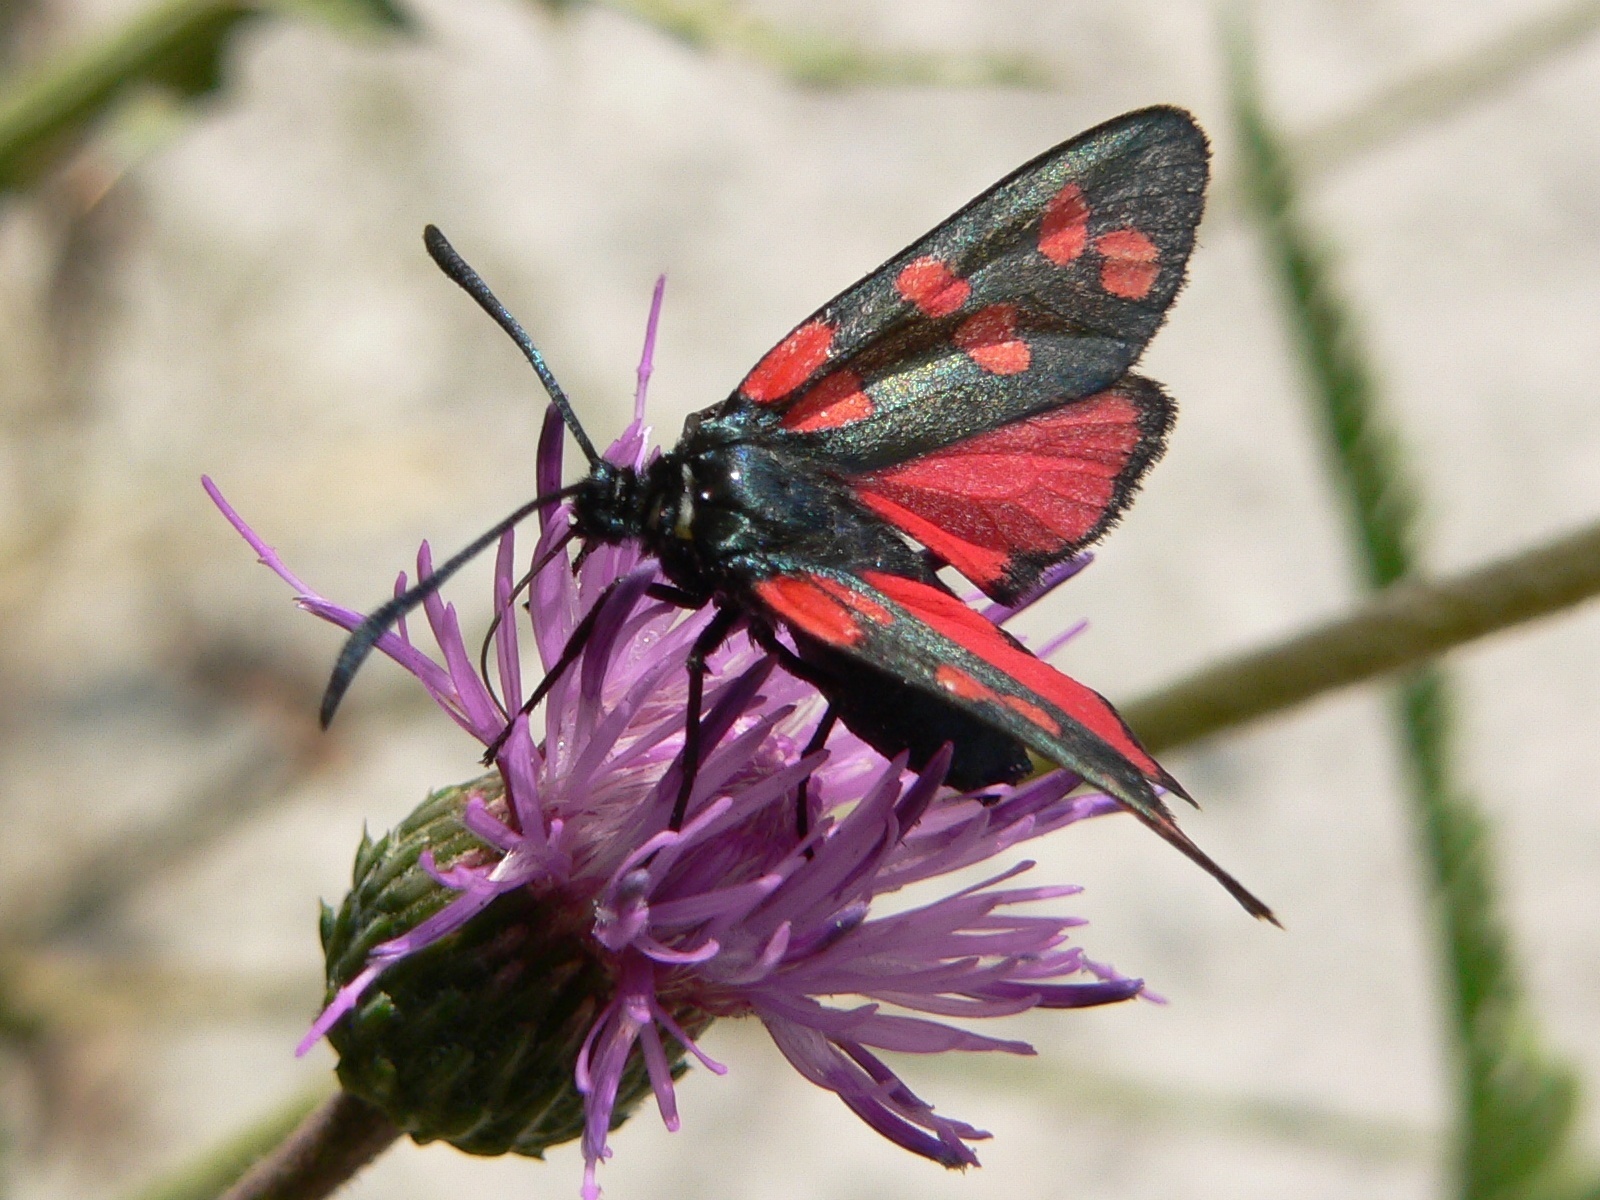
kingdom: Animalia
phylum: Arthropoda
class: Insecta
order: Lepidoptera
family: Zygaenidae
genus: Zygaena
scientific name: Zygaena filipendulae
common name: Six-spot burnet
